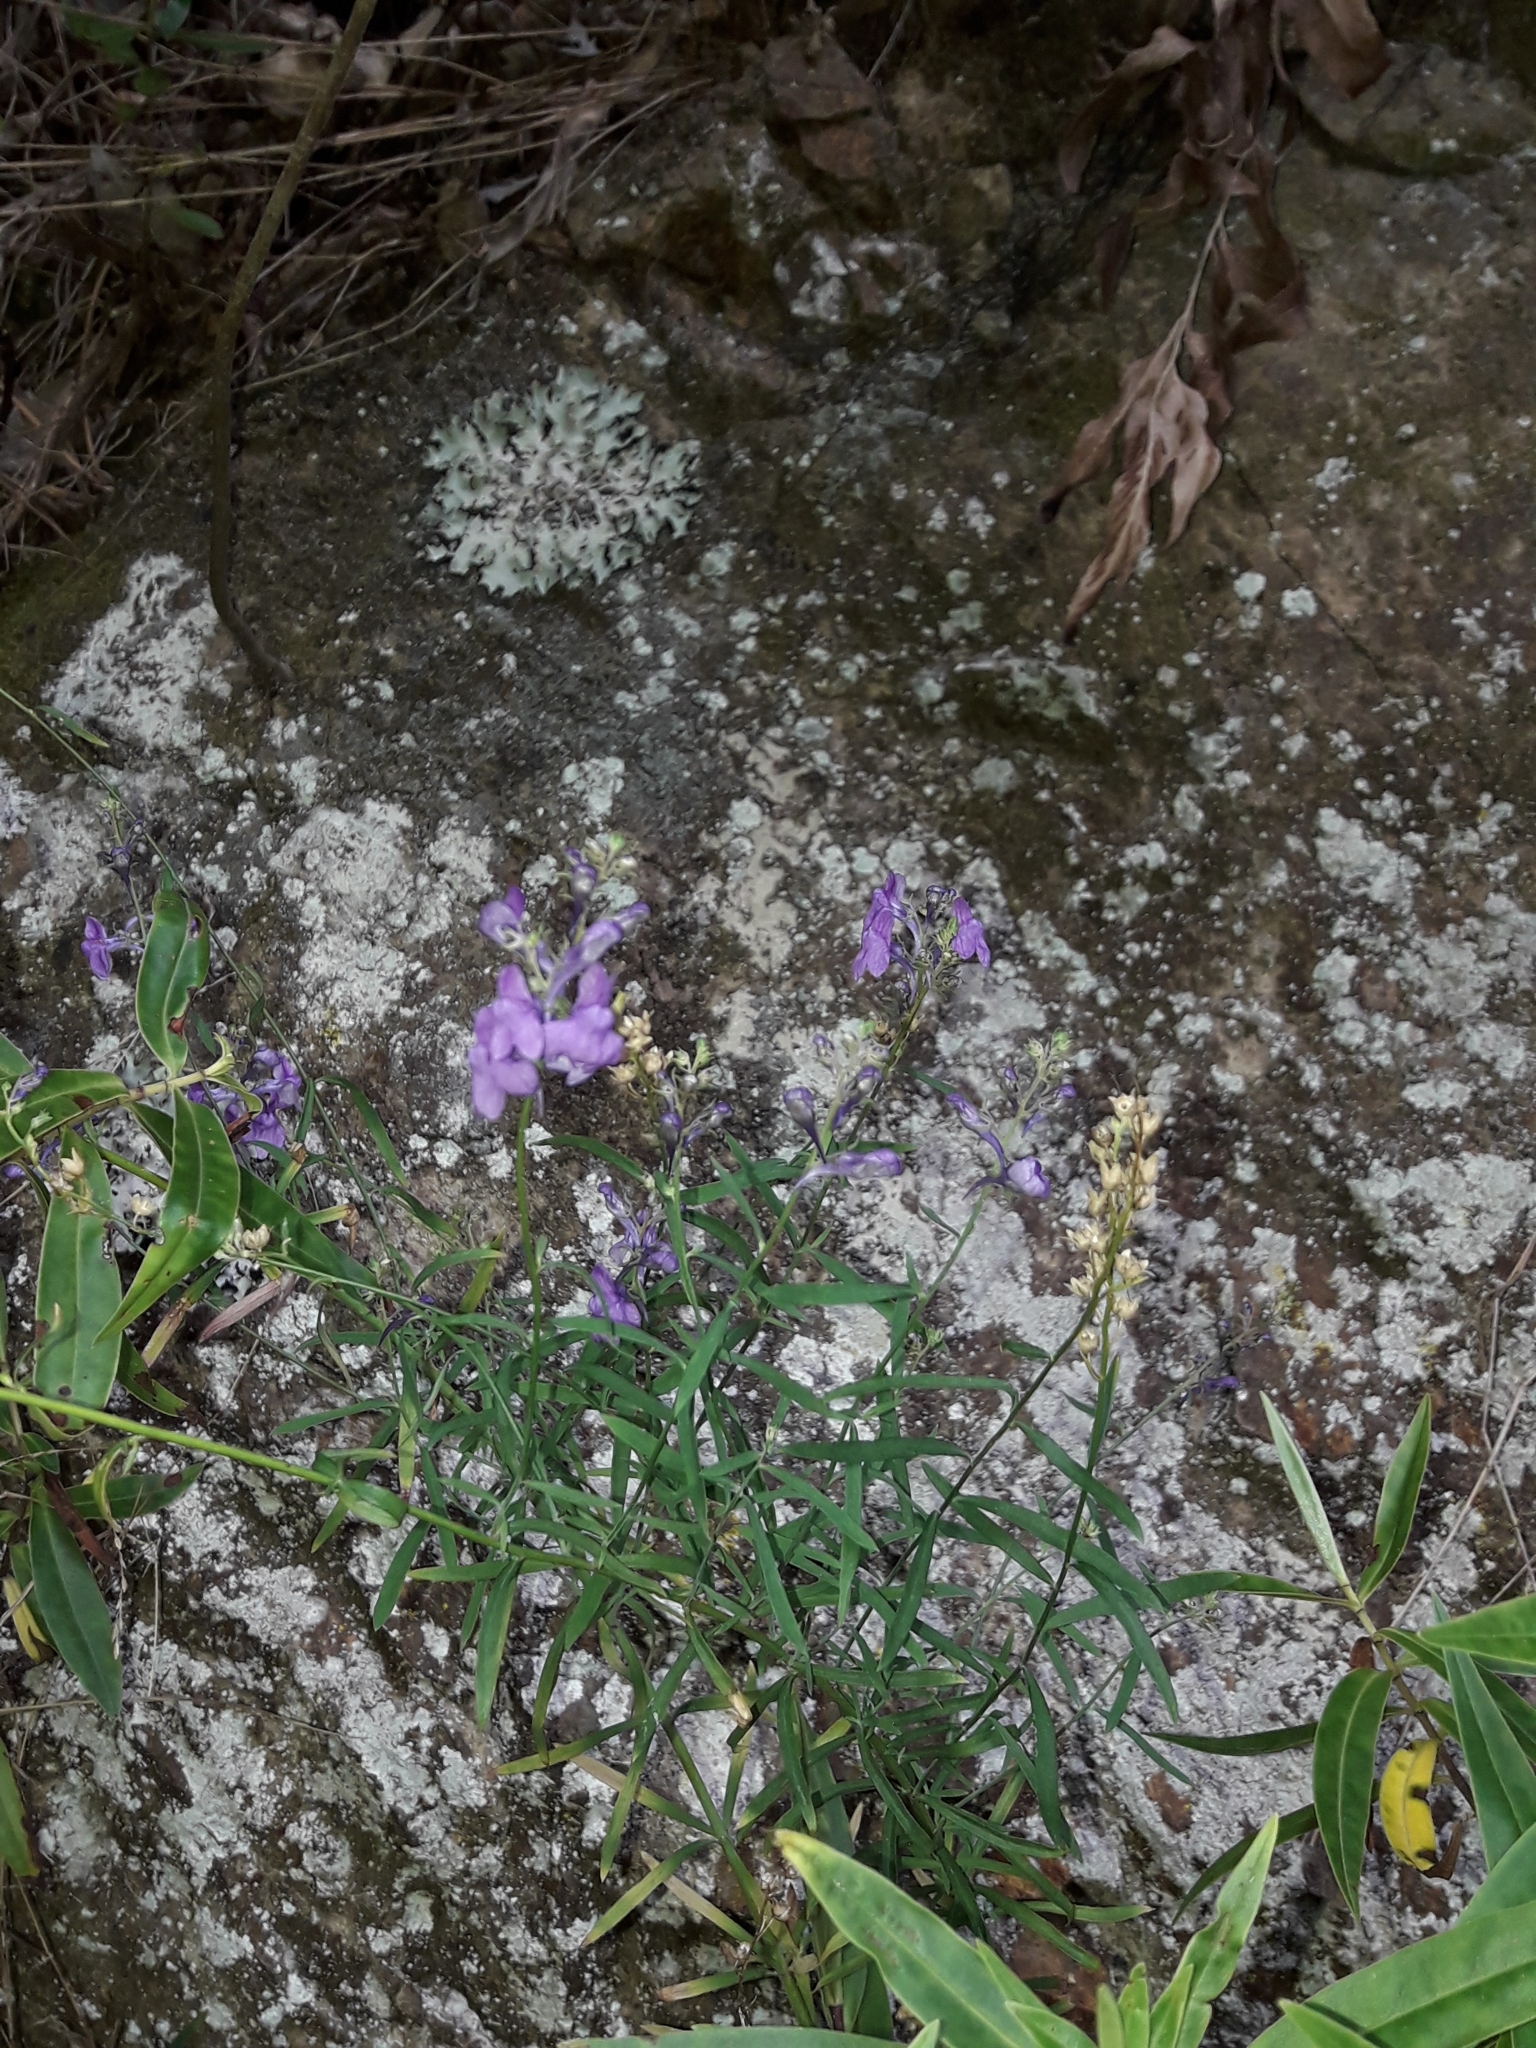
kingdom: Plantae
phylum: Tracheophyta
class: Magnoliopsida
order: Lamiales
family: Plantaginaceae
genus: Linaria
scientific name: Linaria purpurea
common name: Purple toadflax
